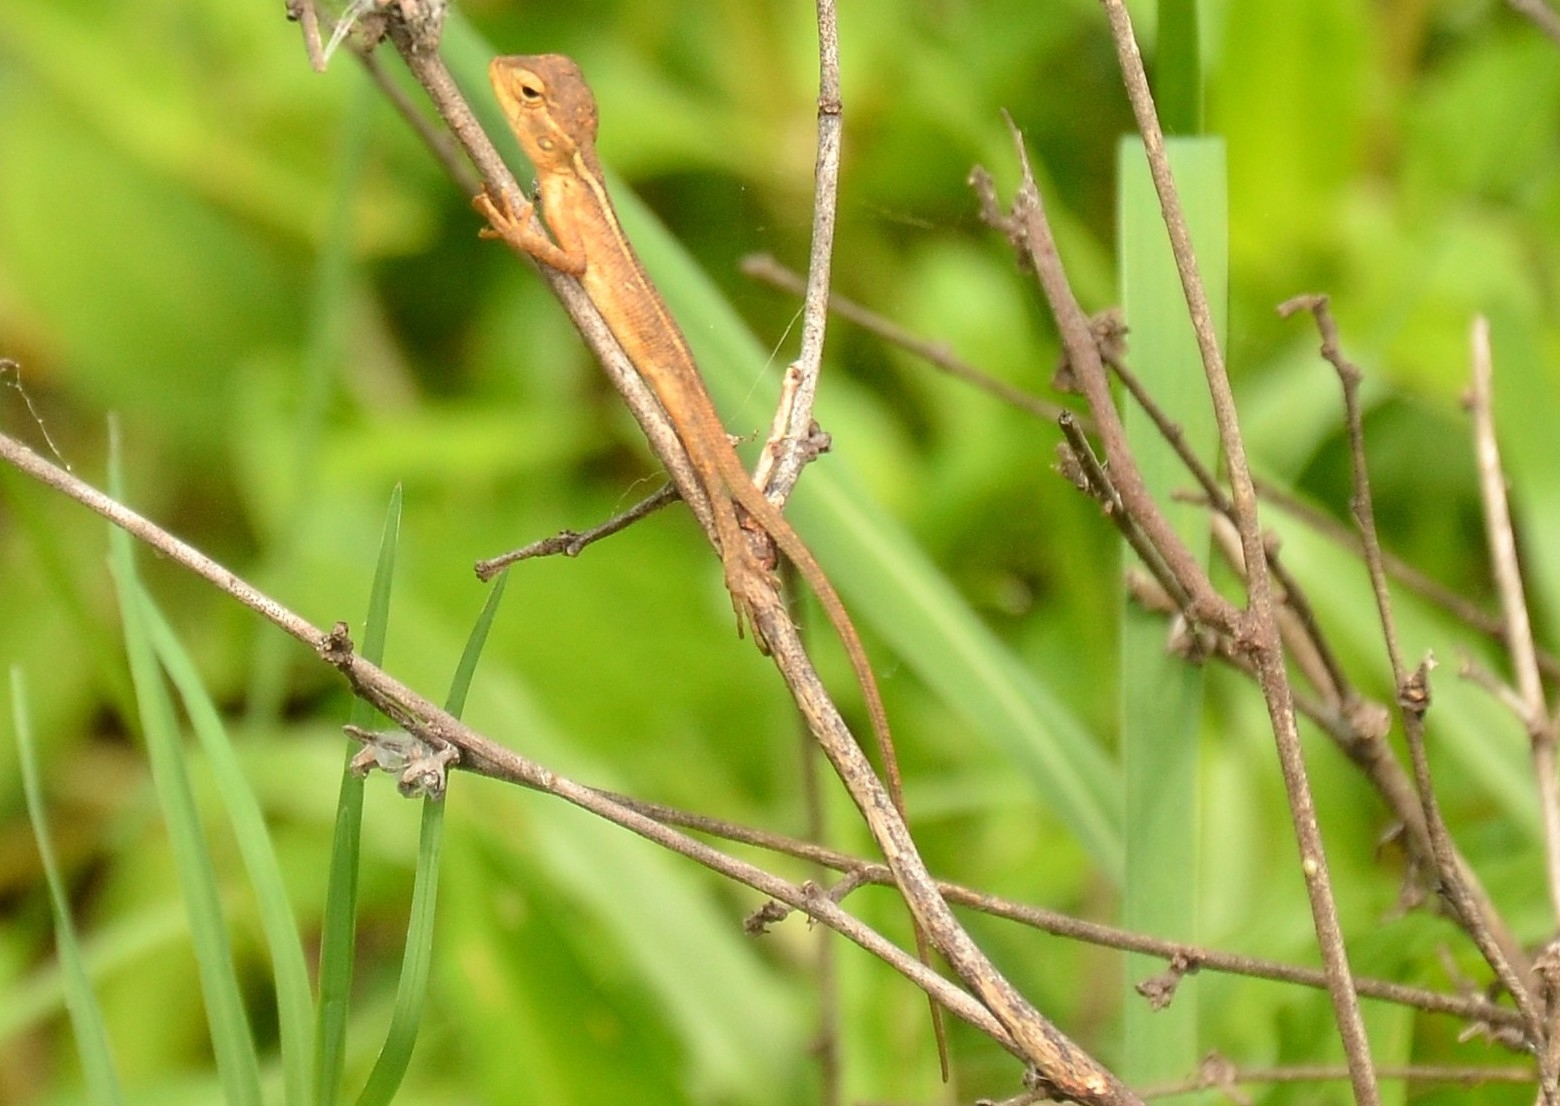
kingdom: Animalia
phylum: Chordata
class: Squamata
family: Agamidae
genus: Calotes
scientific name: Calotes versicolor
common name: Oriental garden lizard
